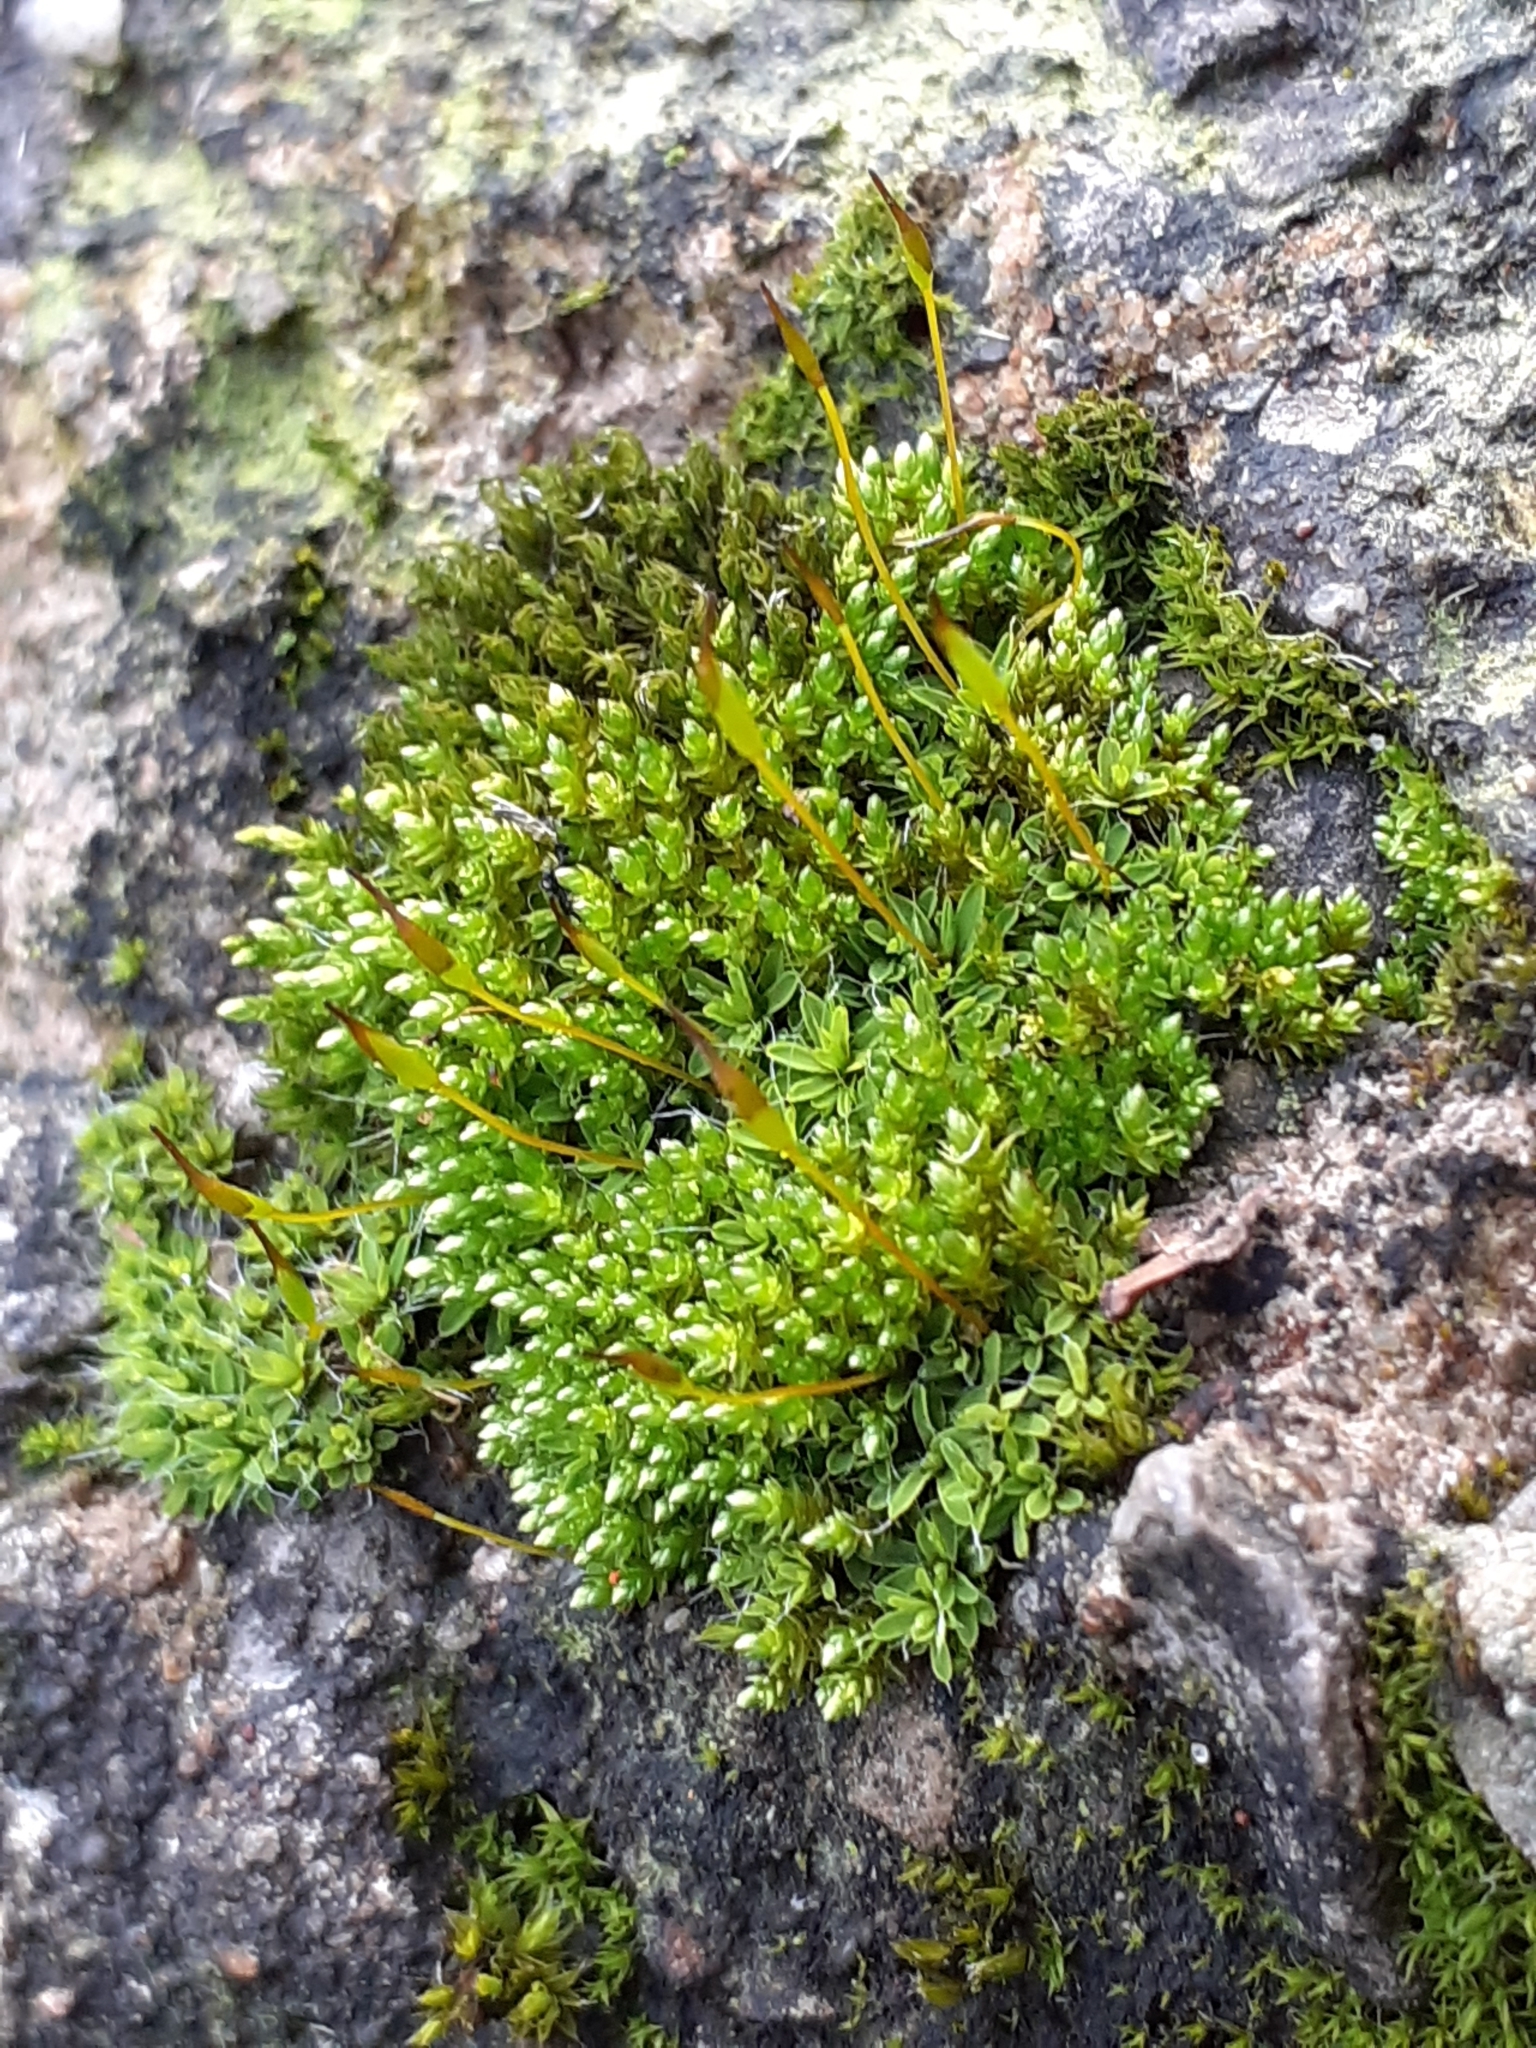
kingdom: Plantae
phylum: Bryophyta
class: Bryopsida
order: Pottiales
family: Pottiaceae
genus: Tortula
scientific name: Tortula muralis
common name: Wall screw-moss
